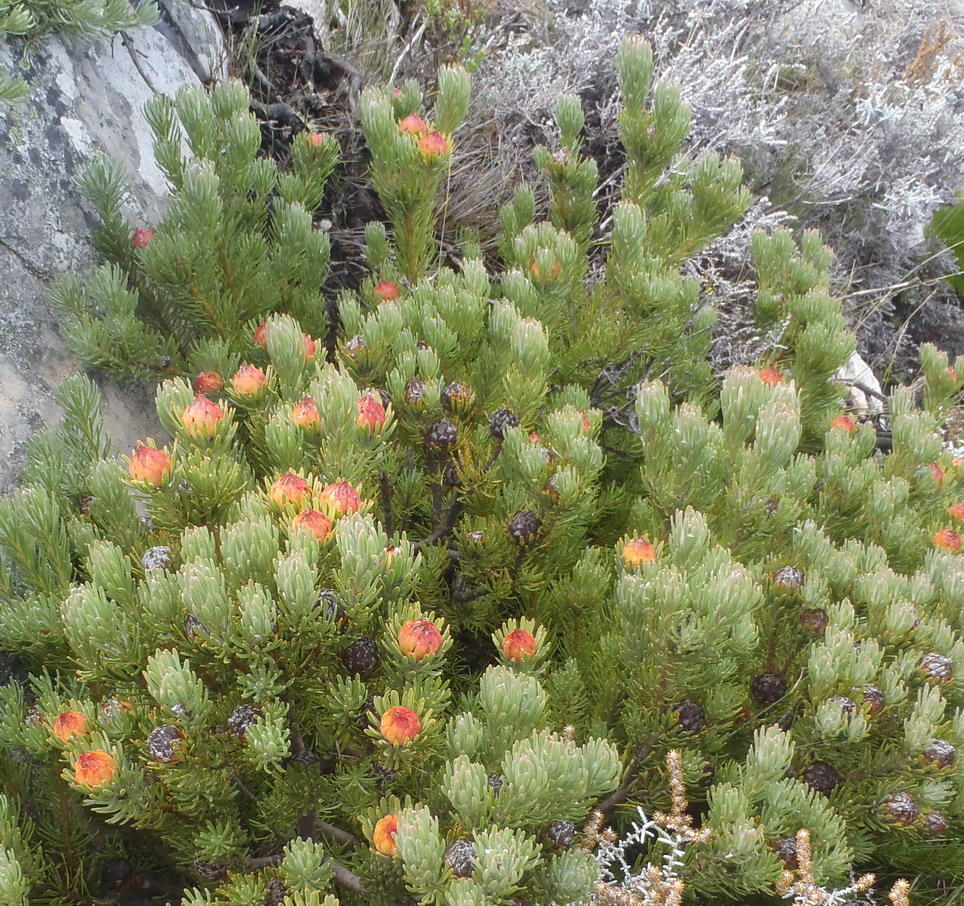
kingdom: Plantae
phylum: Tracheophyta
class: Magnoliopsida
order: Proteales
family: Proteaceae
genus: Leucadendron
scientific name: Leucadendron dregei
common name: Summit conebush
